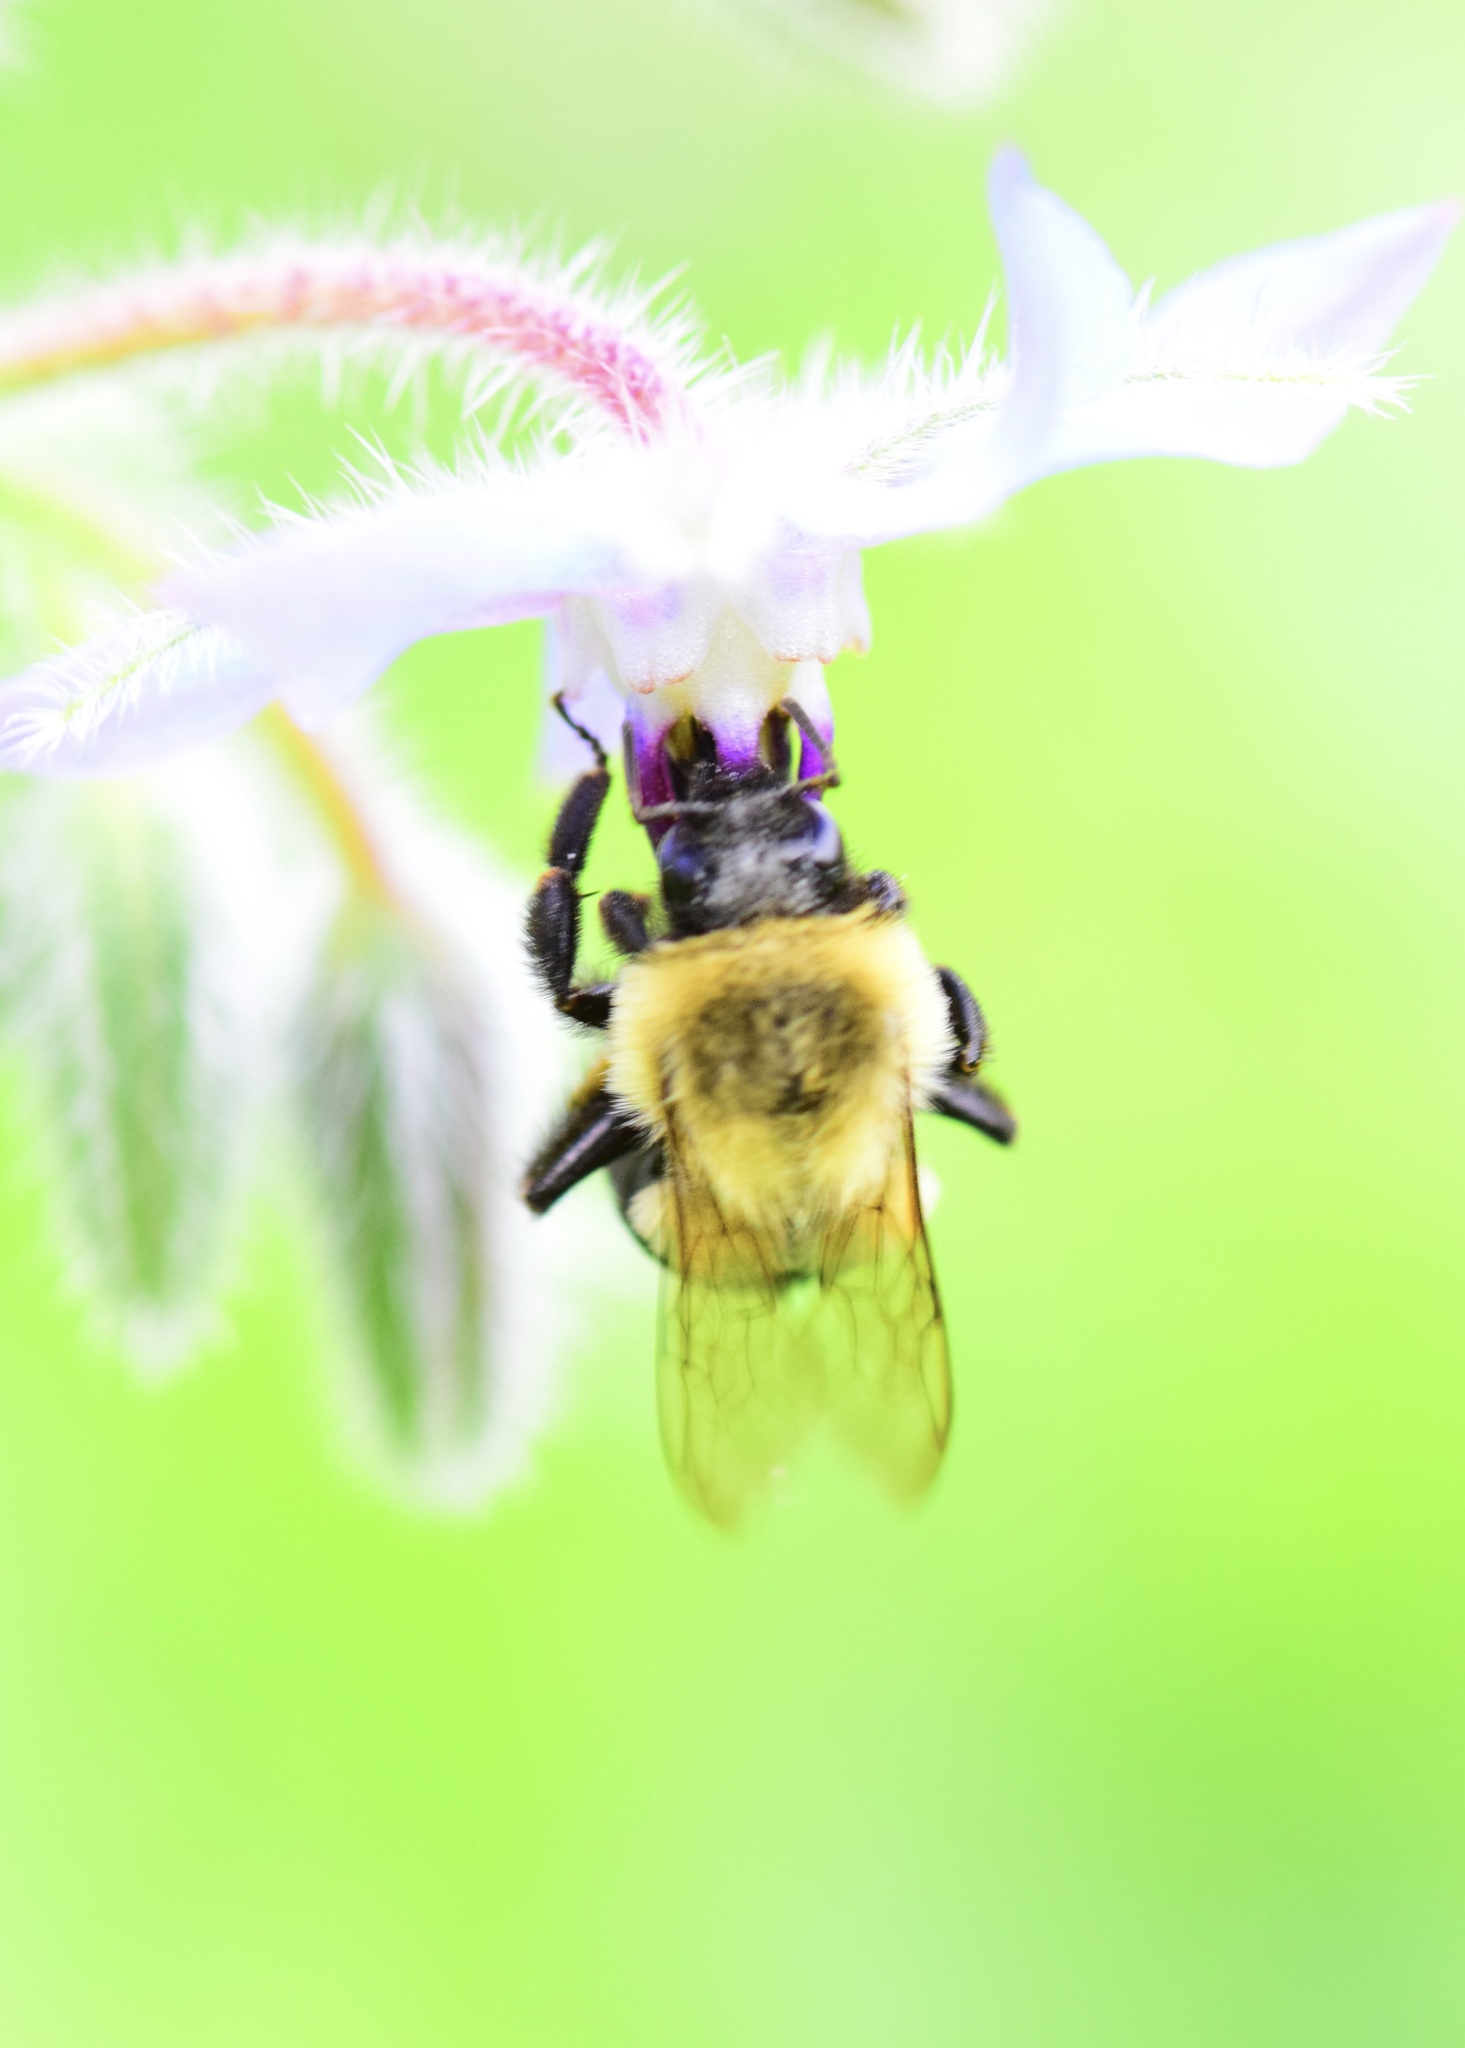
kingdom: Animalia
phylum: Arthropoda
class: Insecta
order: Hymenoptera
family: Apidae
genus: Bombus
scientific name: Bombus impatiens
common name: Common eastern bumble bee
